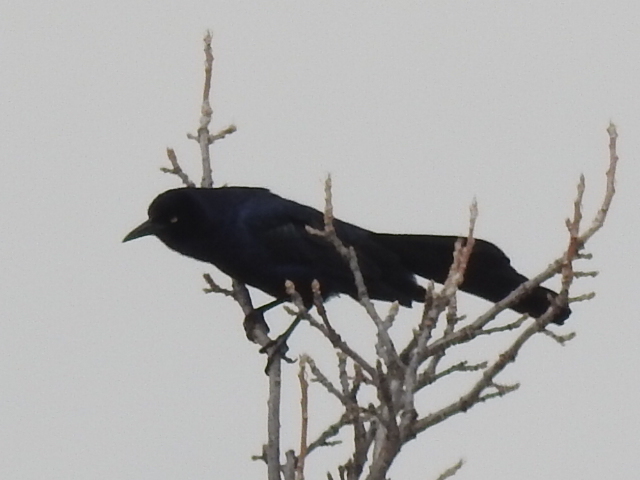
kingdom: Animalia
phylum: Chordata
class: Aves
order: Passeriformes
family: Icteridae
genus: Quiscalus
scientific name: Quiscalus mexicanus
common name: Great-tailed grackle
